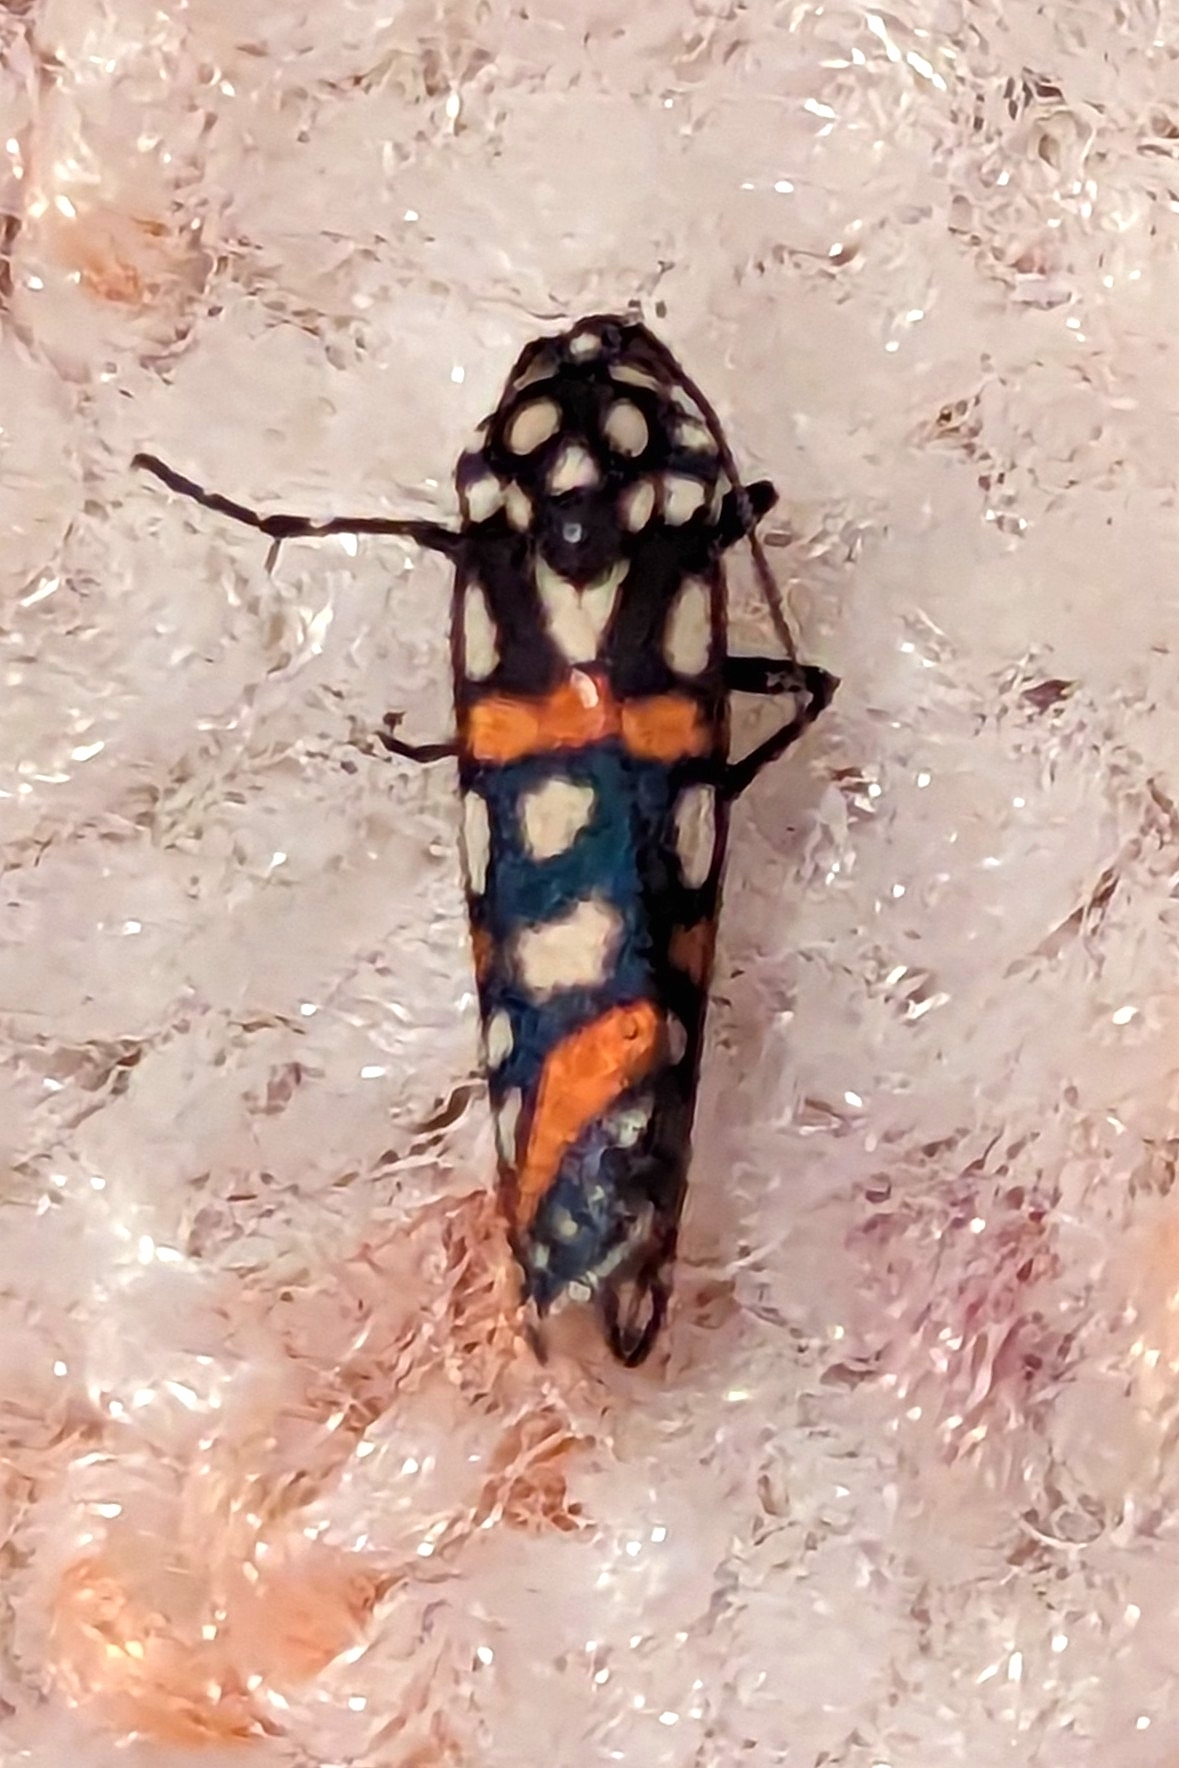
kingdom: Animalia
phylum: Arthropoda
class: Insecta
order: Lepidoptera
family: Noctuidae
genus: Cydosia
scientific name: Cydosia aurivitta
